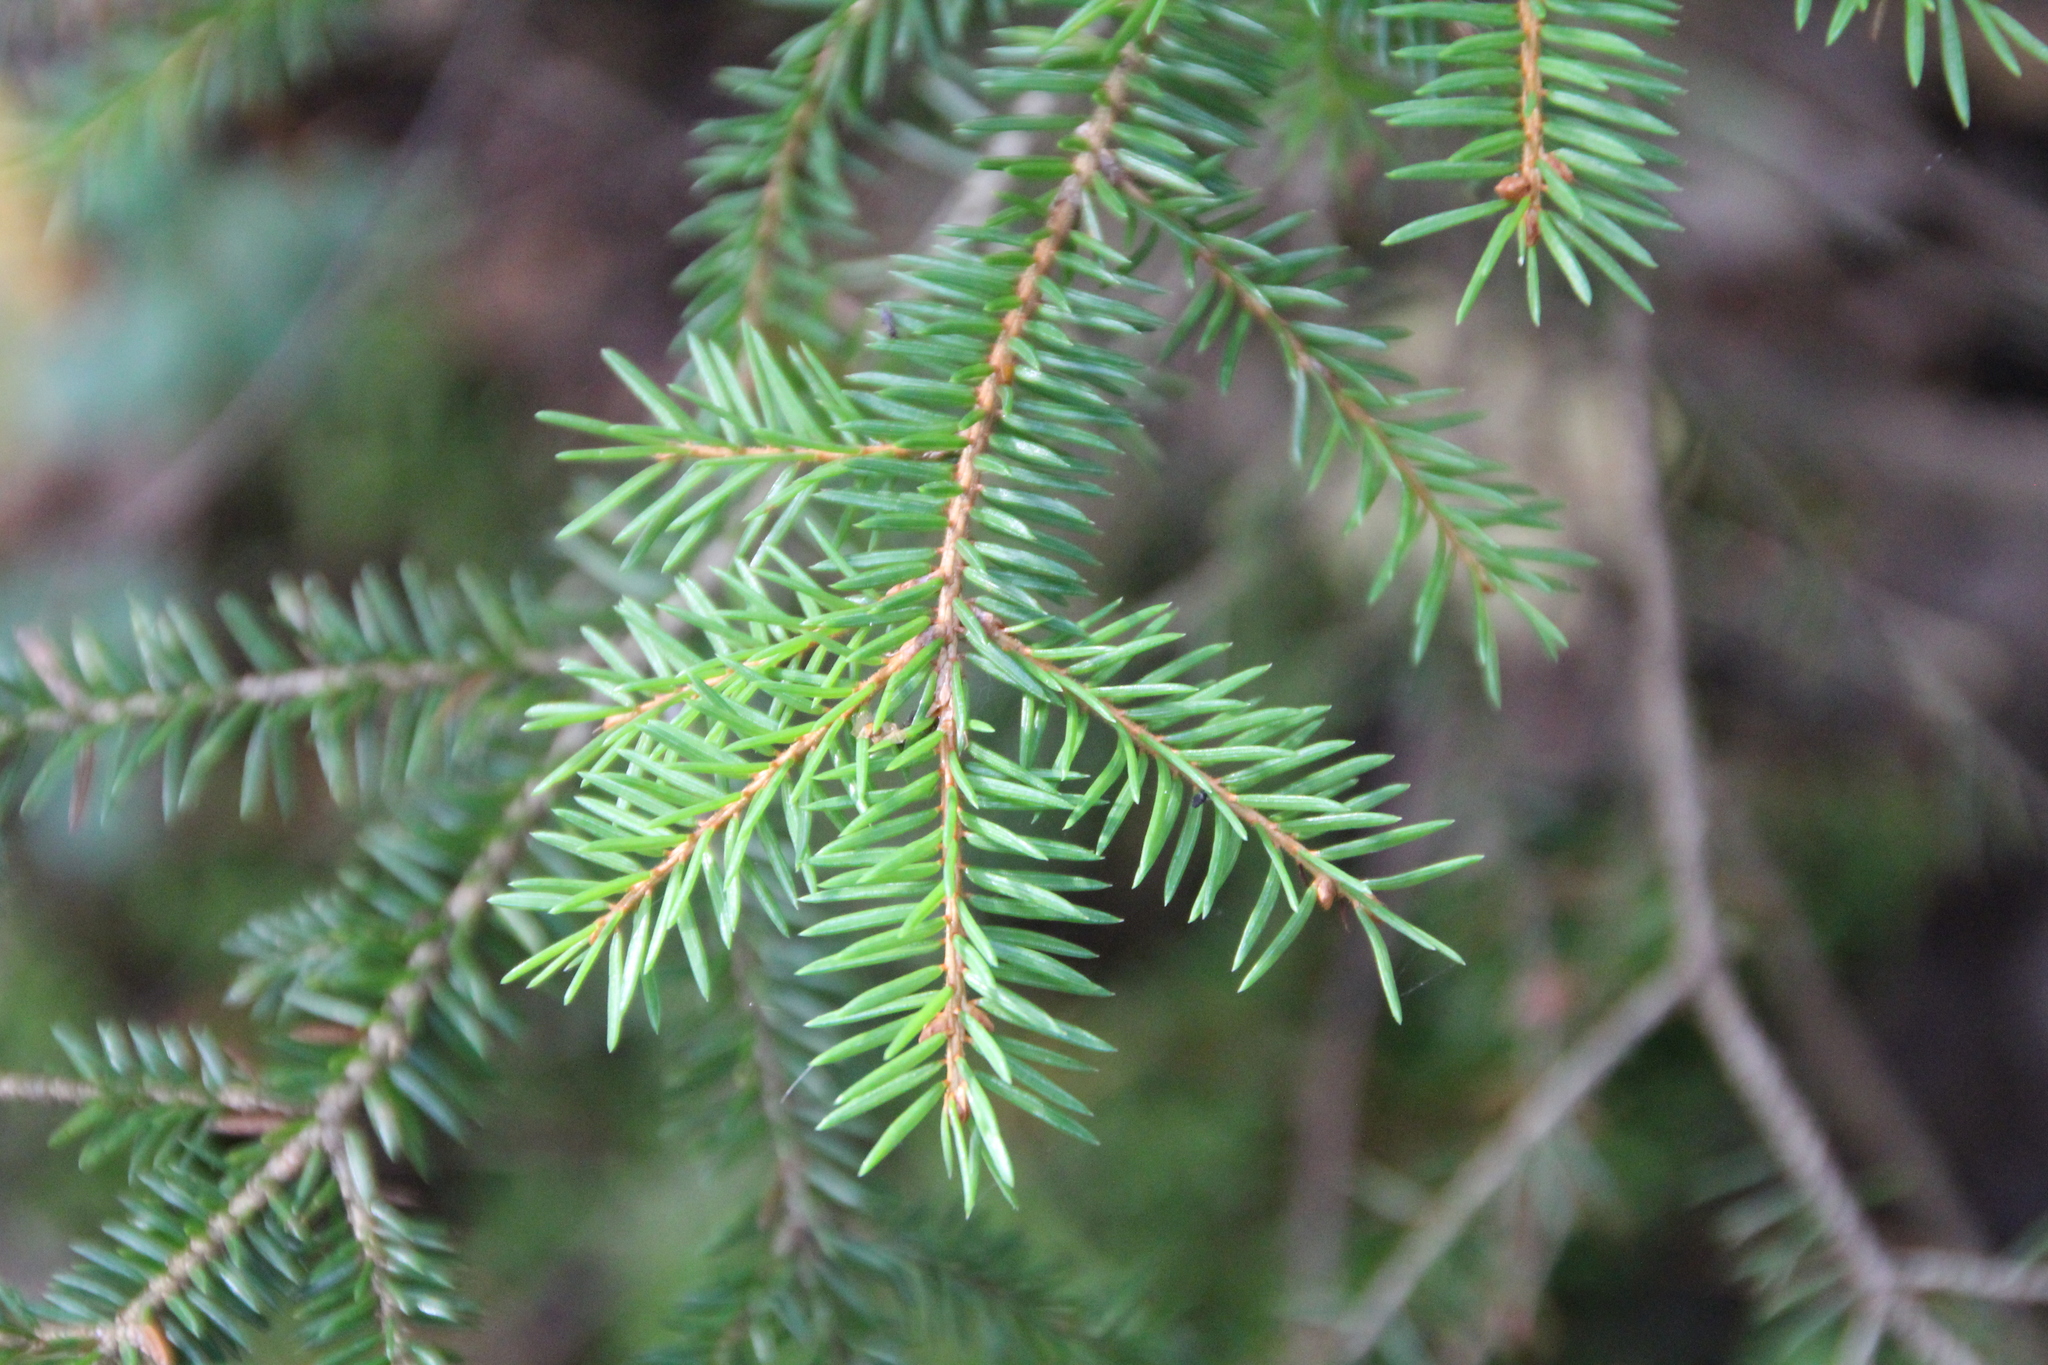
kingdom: Plantae
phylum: Tracheophyta
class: Pinopsida
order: Pinales
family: Pinaceae
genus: Picea
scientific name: Picea abies
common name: Norway spruce
